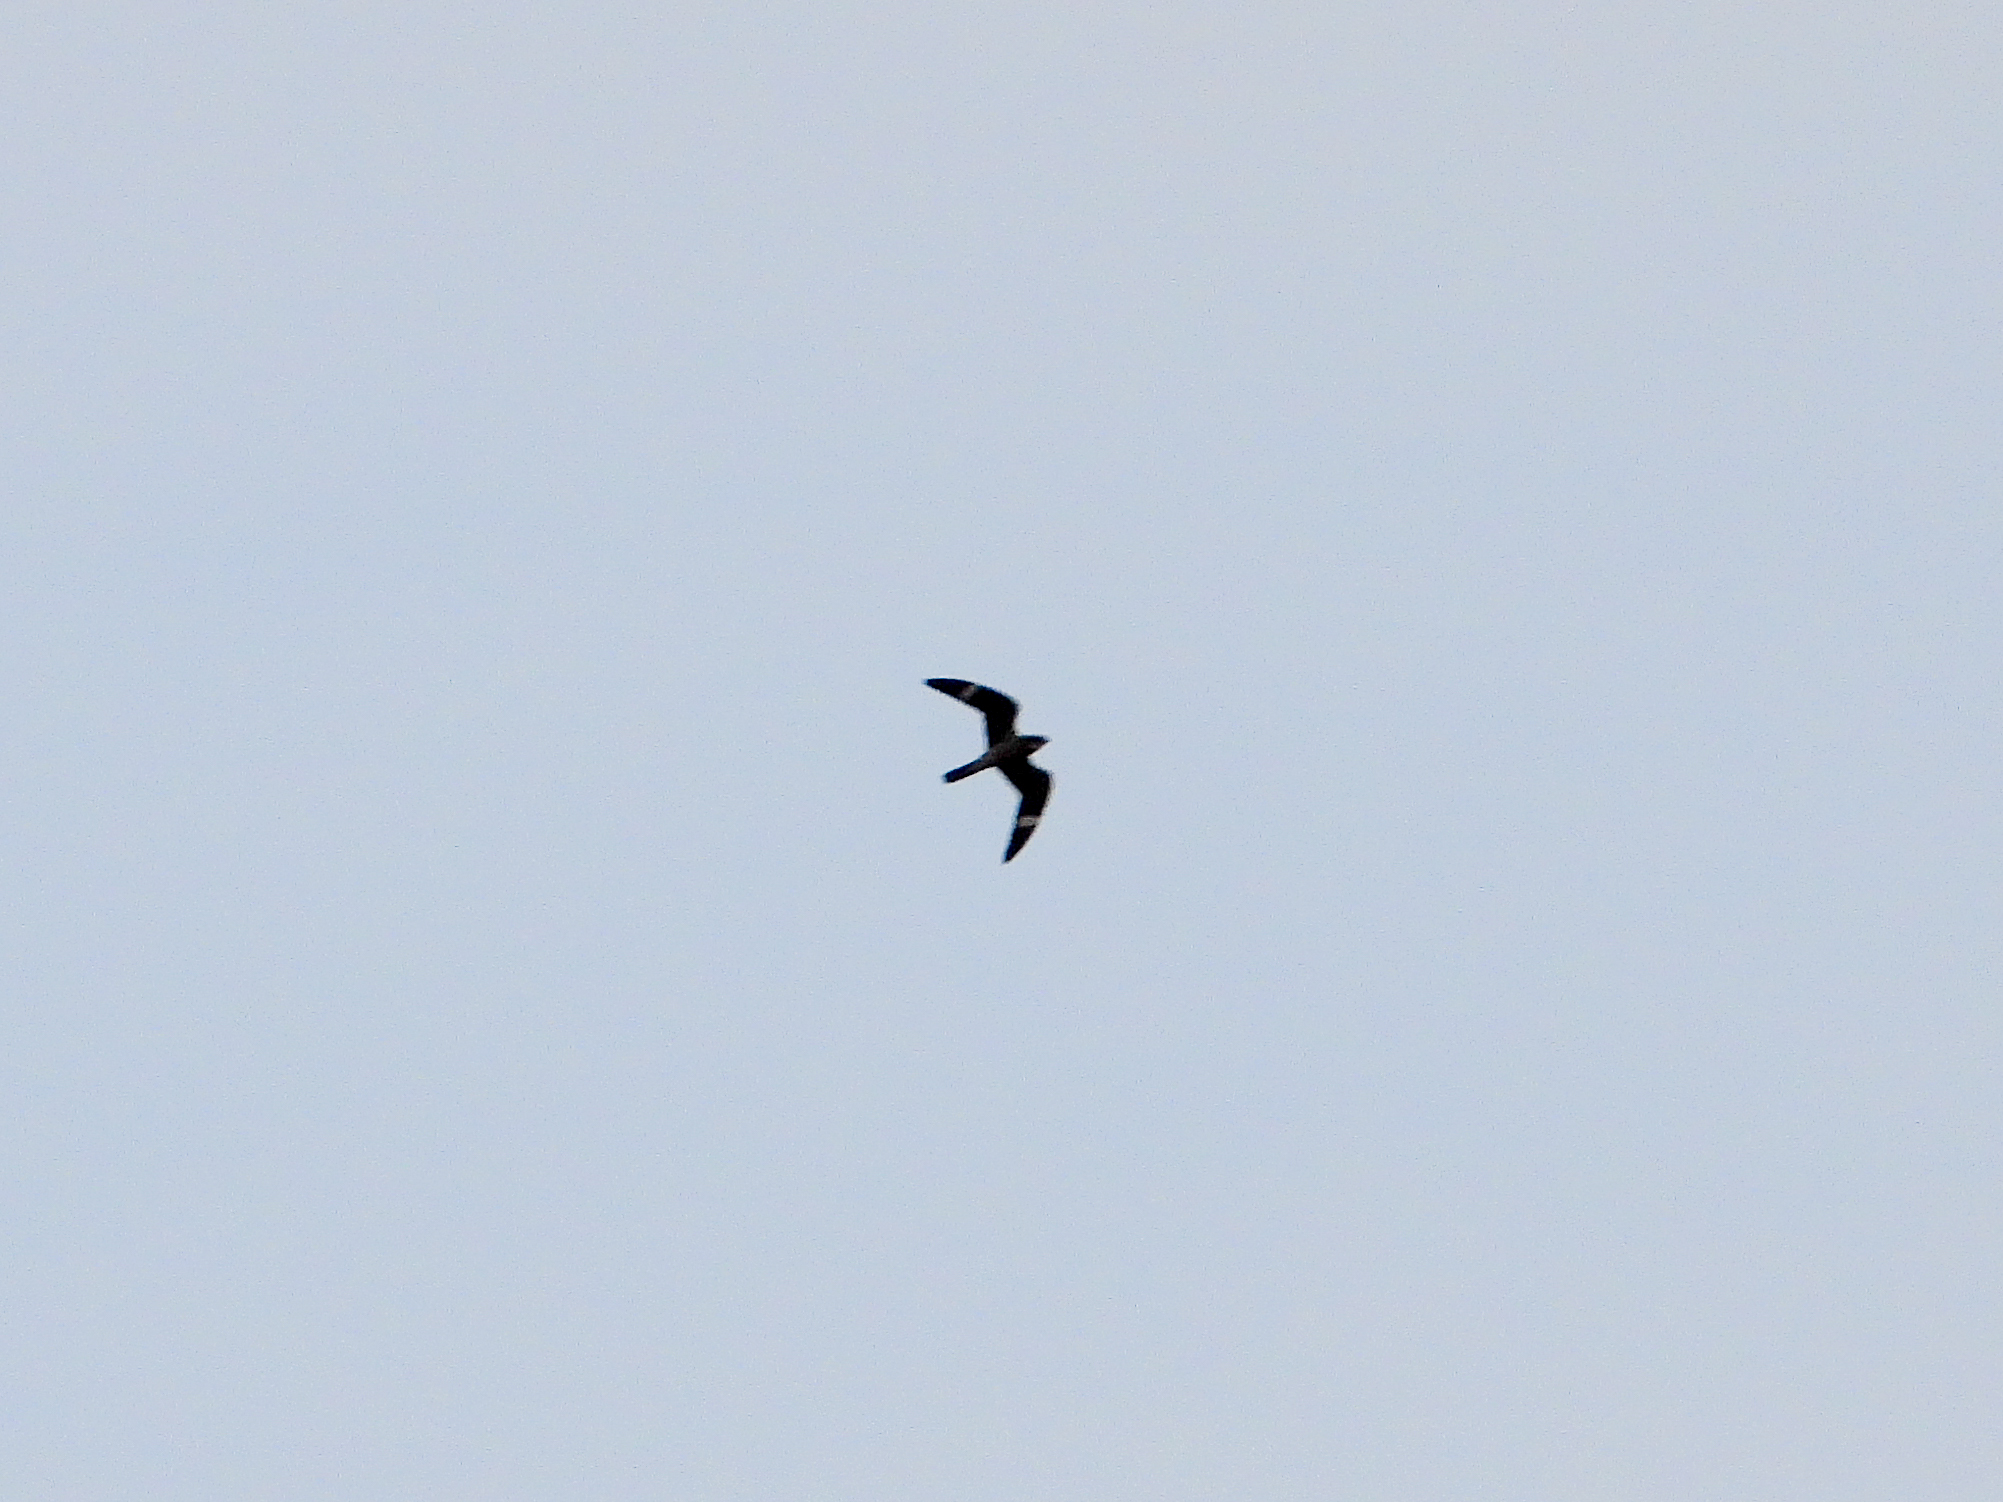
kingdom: Animalia
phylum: Chordata
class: Aves
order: Caprimulgiformes
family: Caprimulgidae
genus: Chordeiles
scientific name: Chordeiles minor
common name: Common nighthawk
